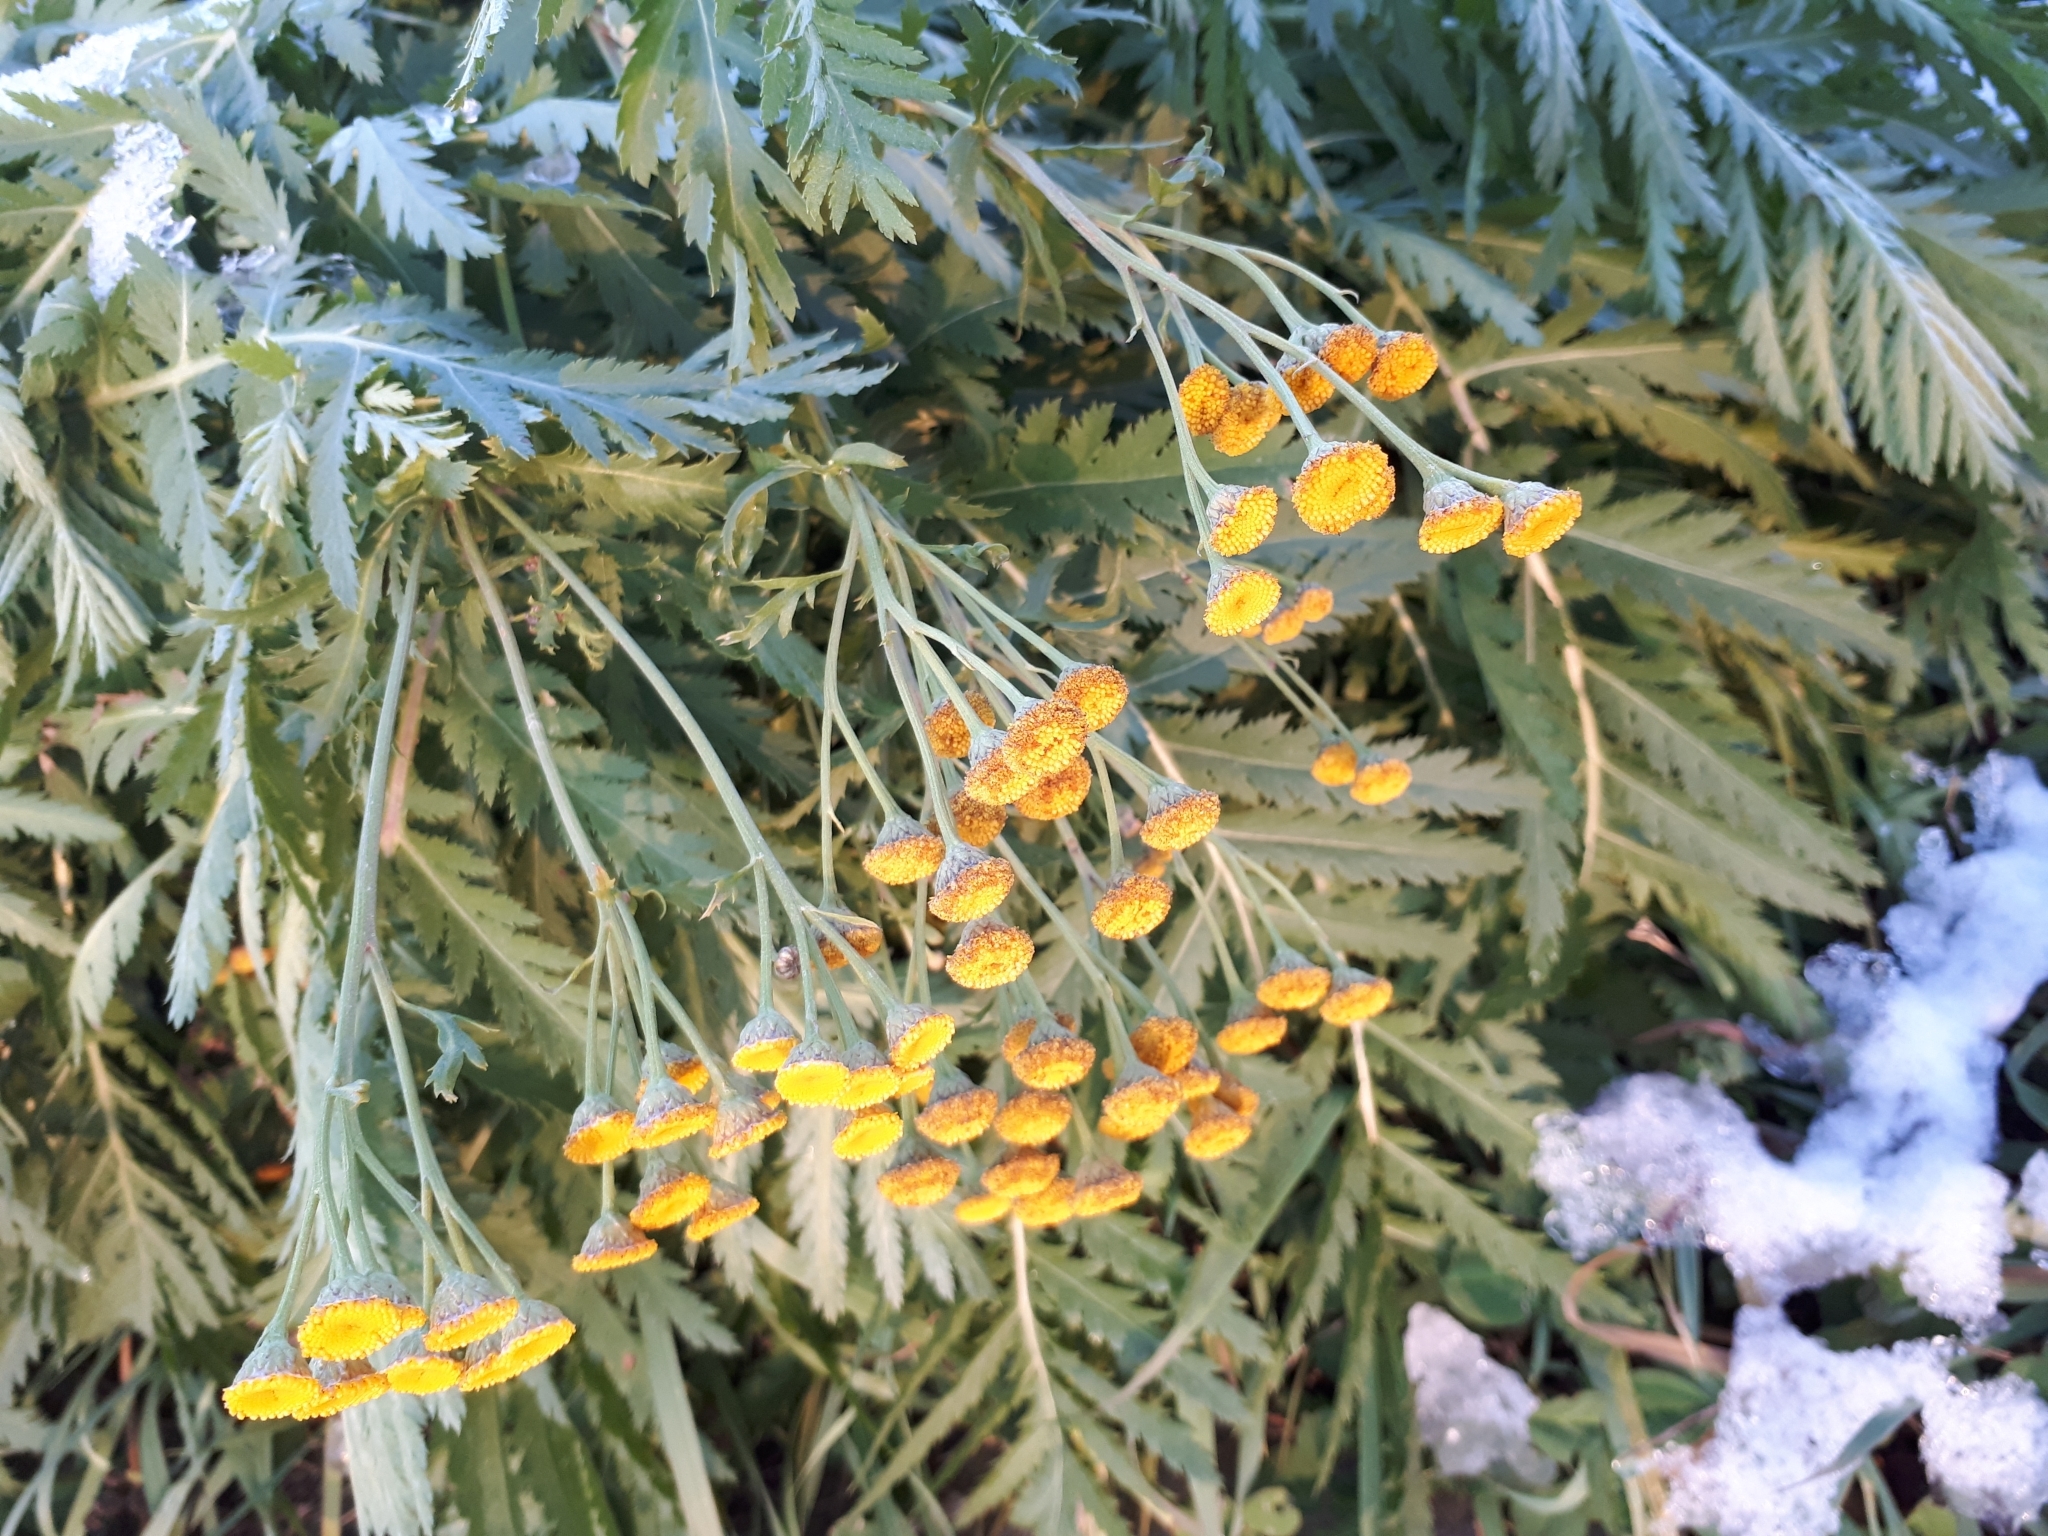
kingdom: Plantae
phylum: Tracheophyta
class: Magnoliopsida
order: Asterales
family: Asteraceae
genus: Tanacetum
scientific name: Tanacetum vulgare
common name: Common tansy
